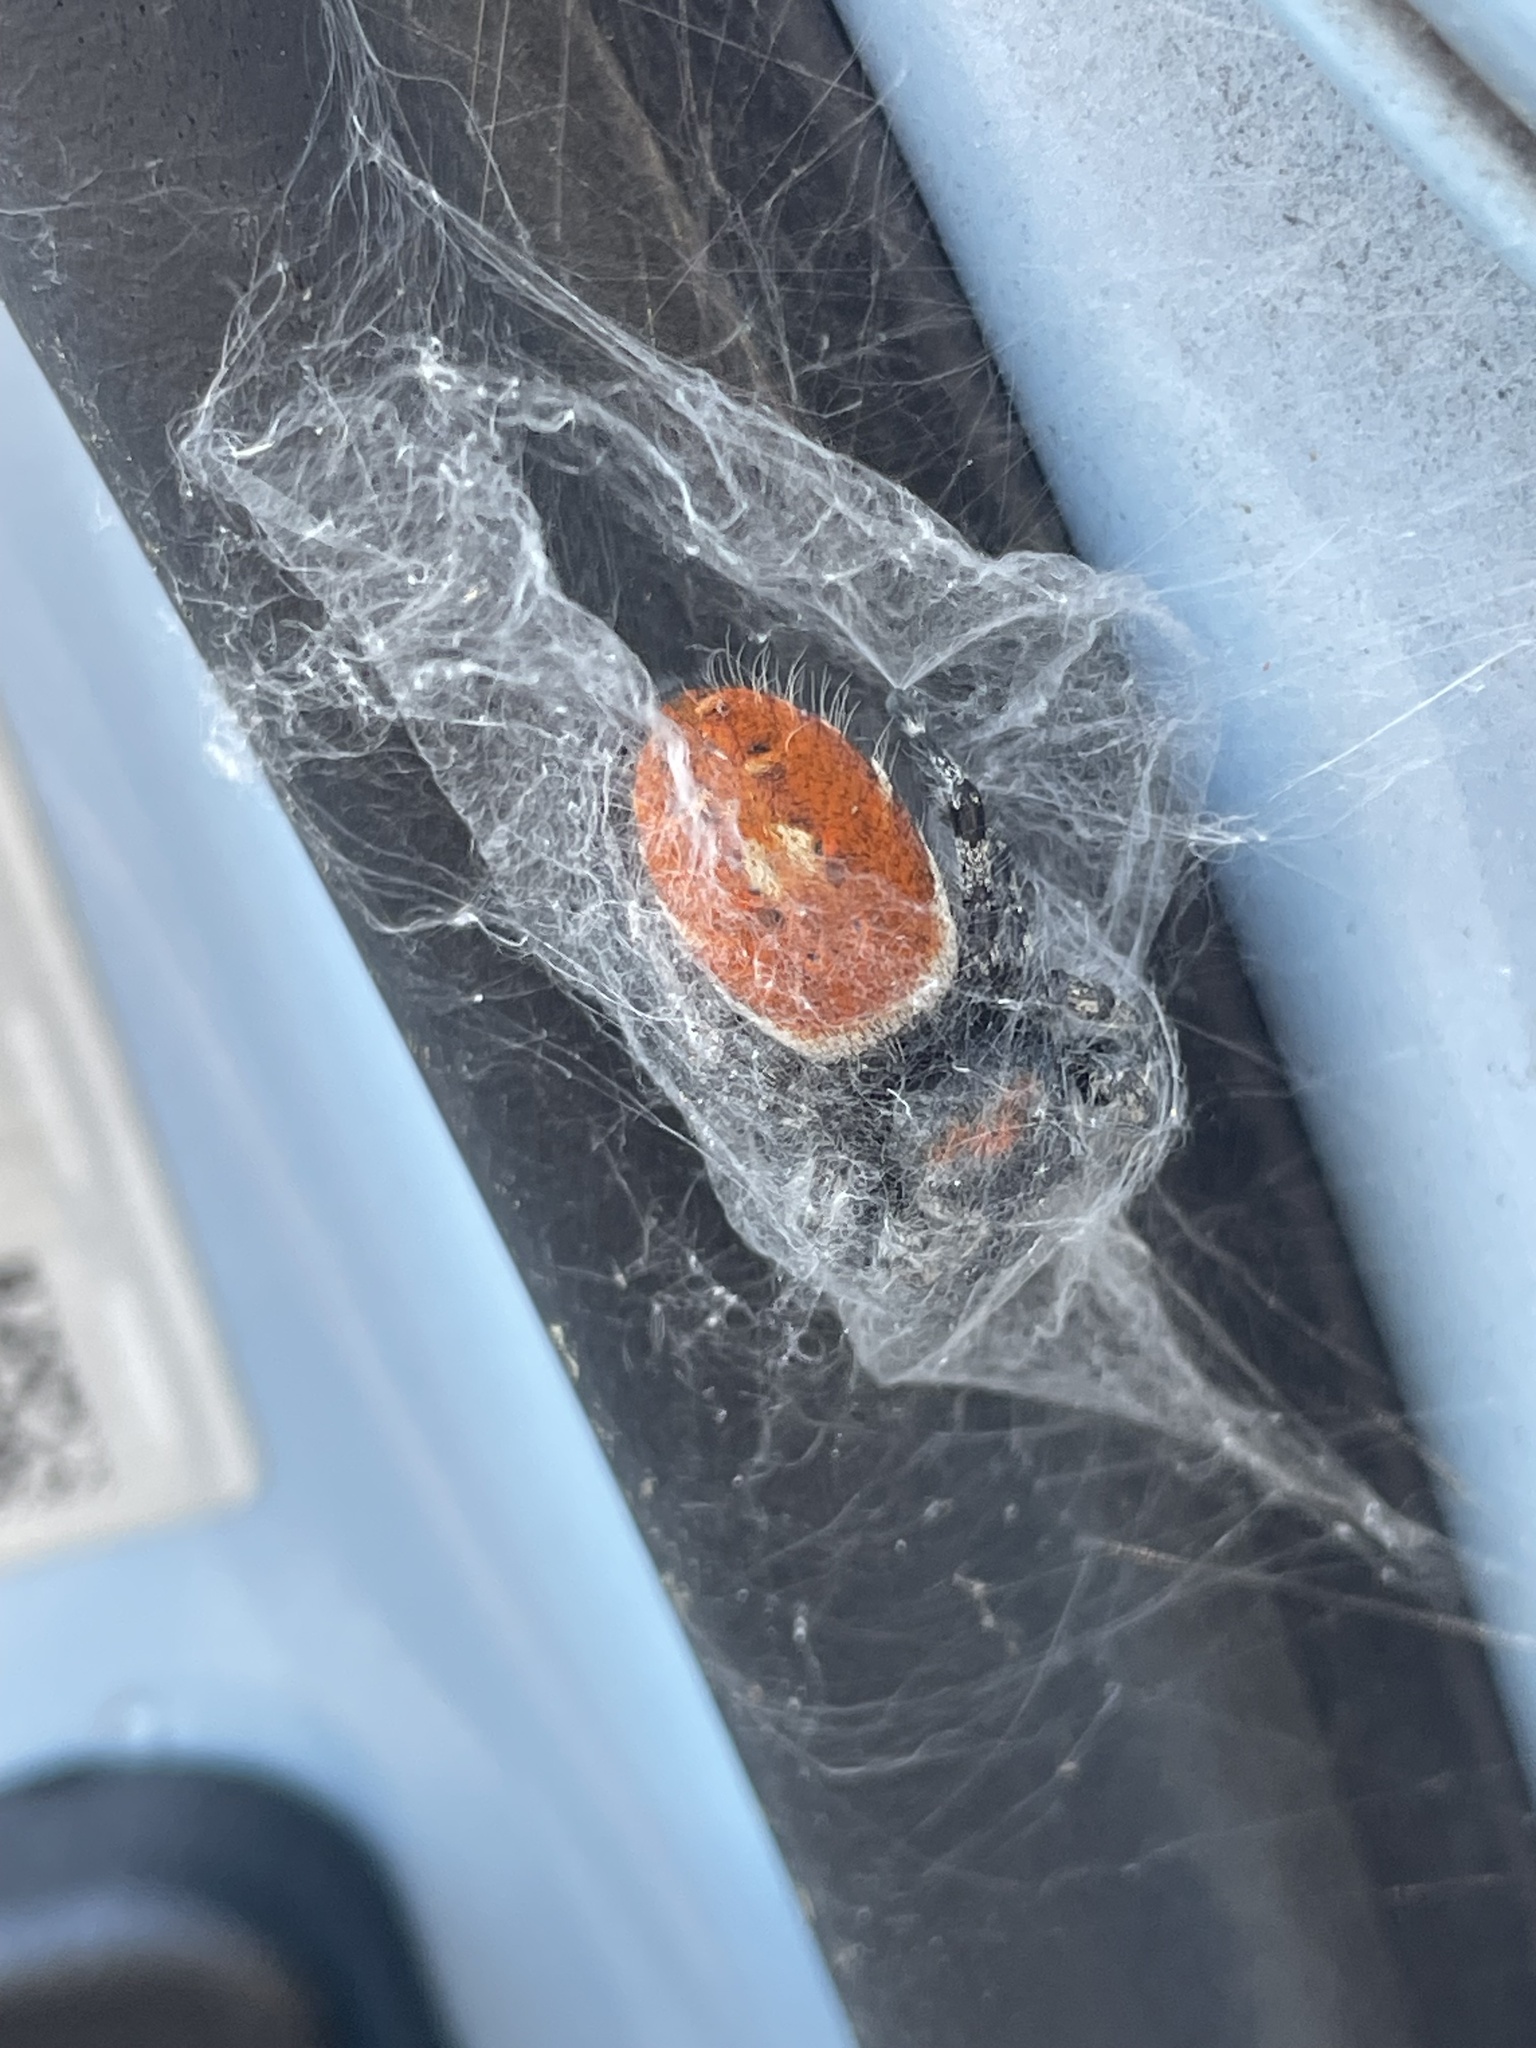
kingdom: Animalia
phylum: Arthropoda
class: Arachnida
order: Araneae
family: Salticidae
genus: Phidippus
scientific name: Phidippus adumbratus
